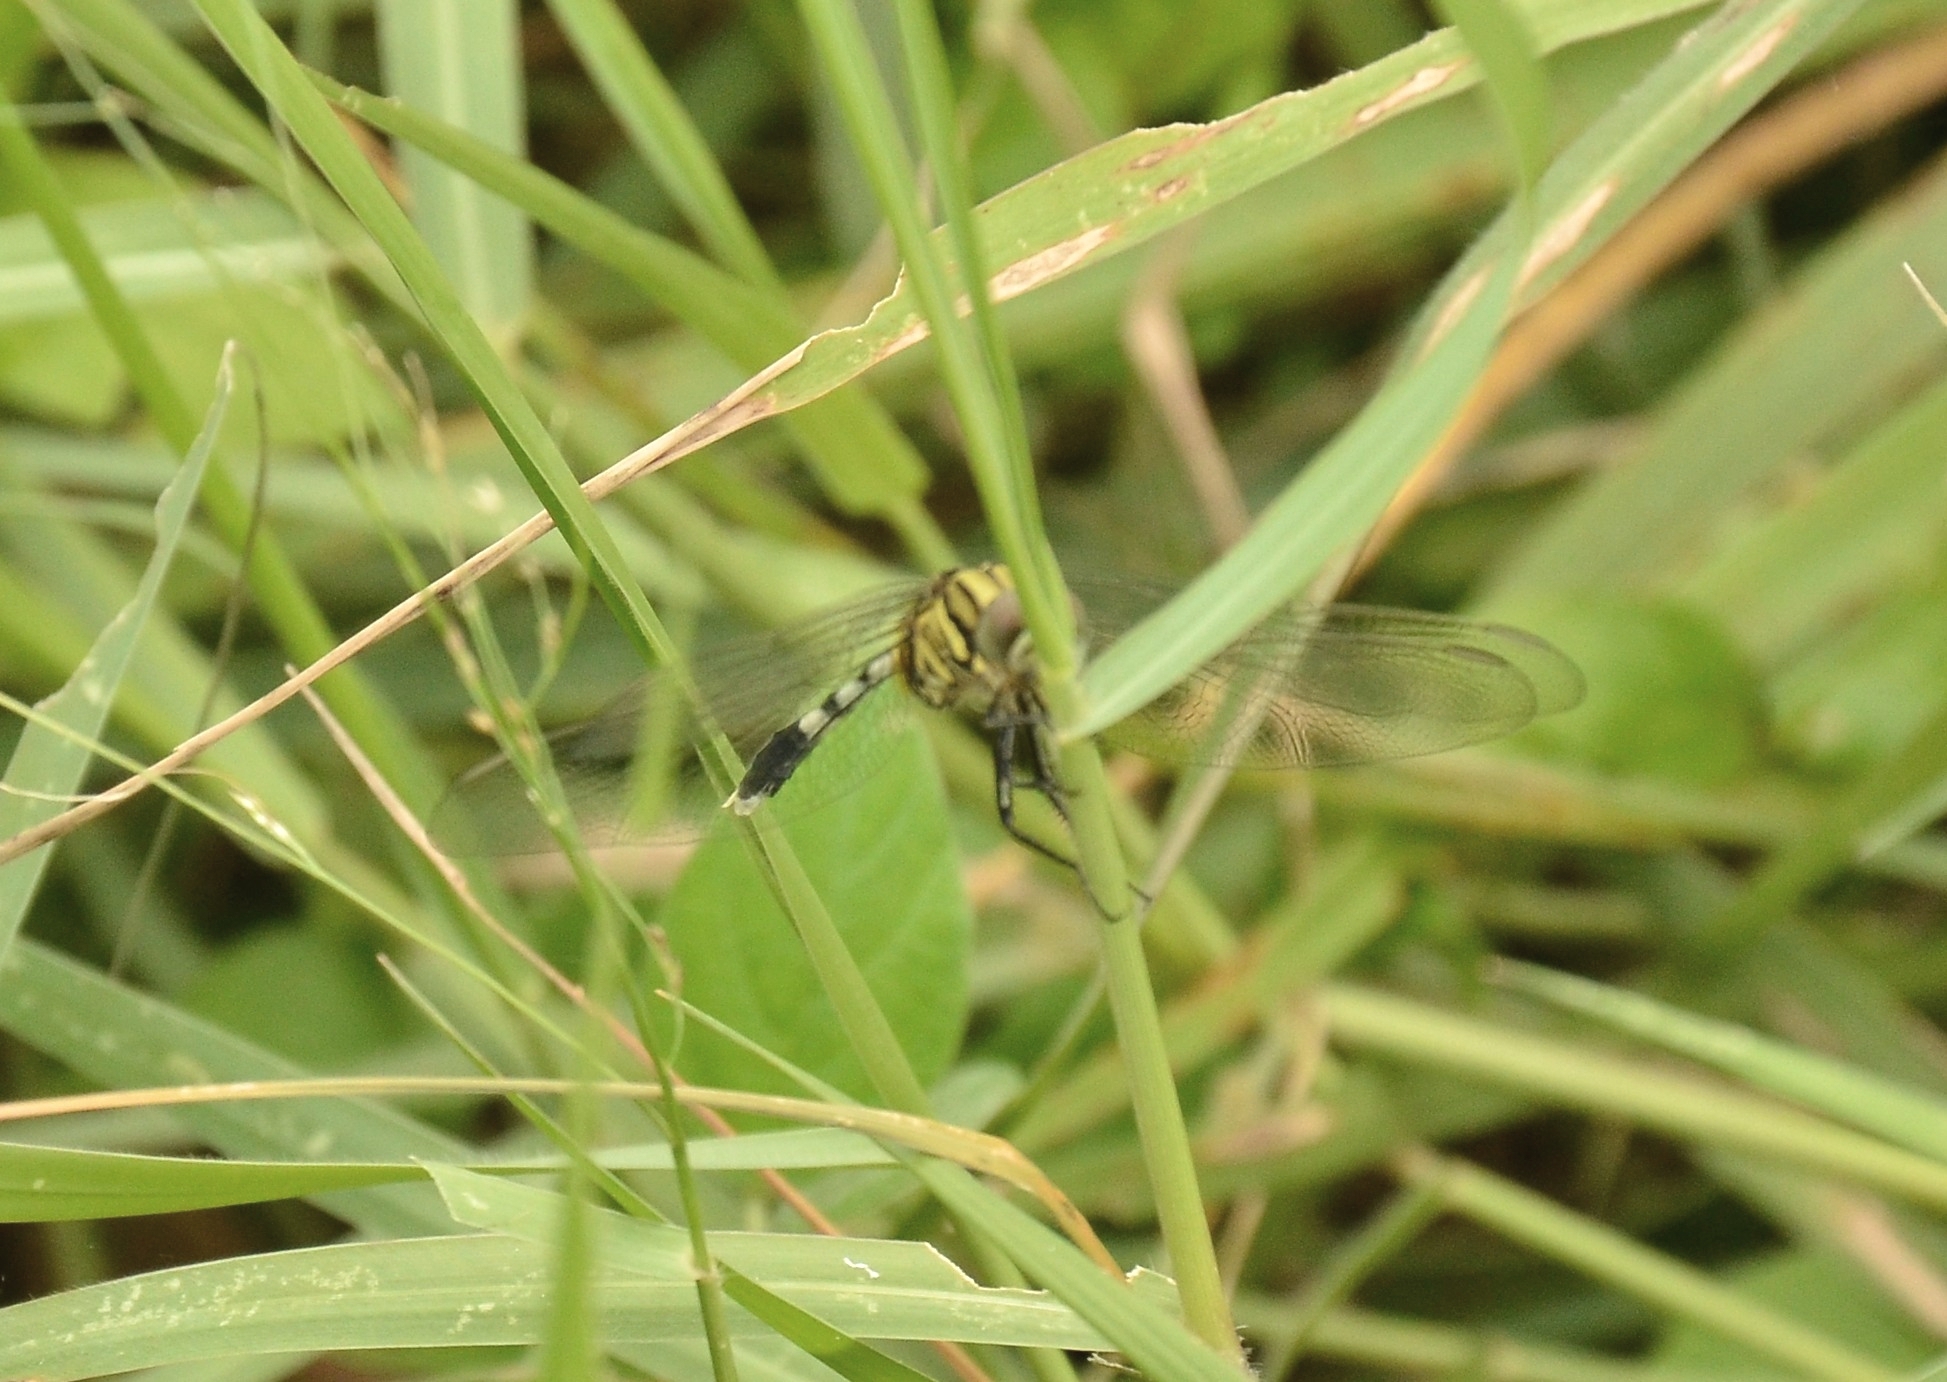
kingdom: Animalia
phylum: Arthropoda
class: Insecta
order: Odonata
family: Libellulidae
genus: Orthetrum
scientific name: Orthetrum sabina
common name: Slender skimmer
